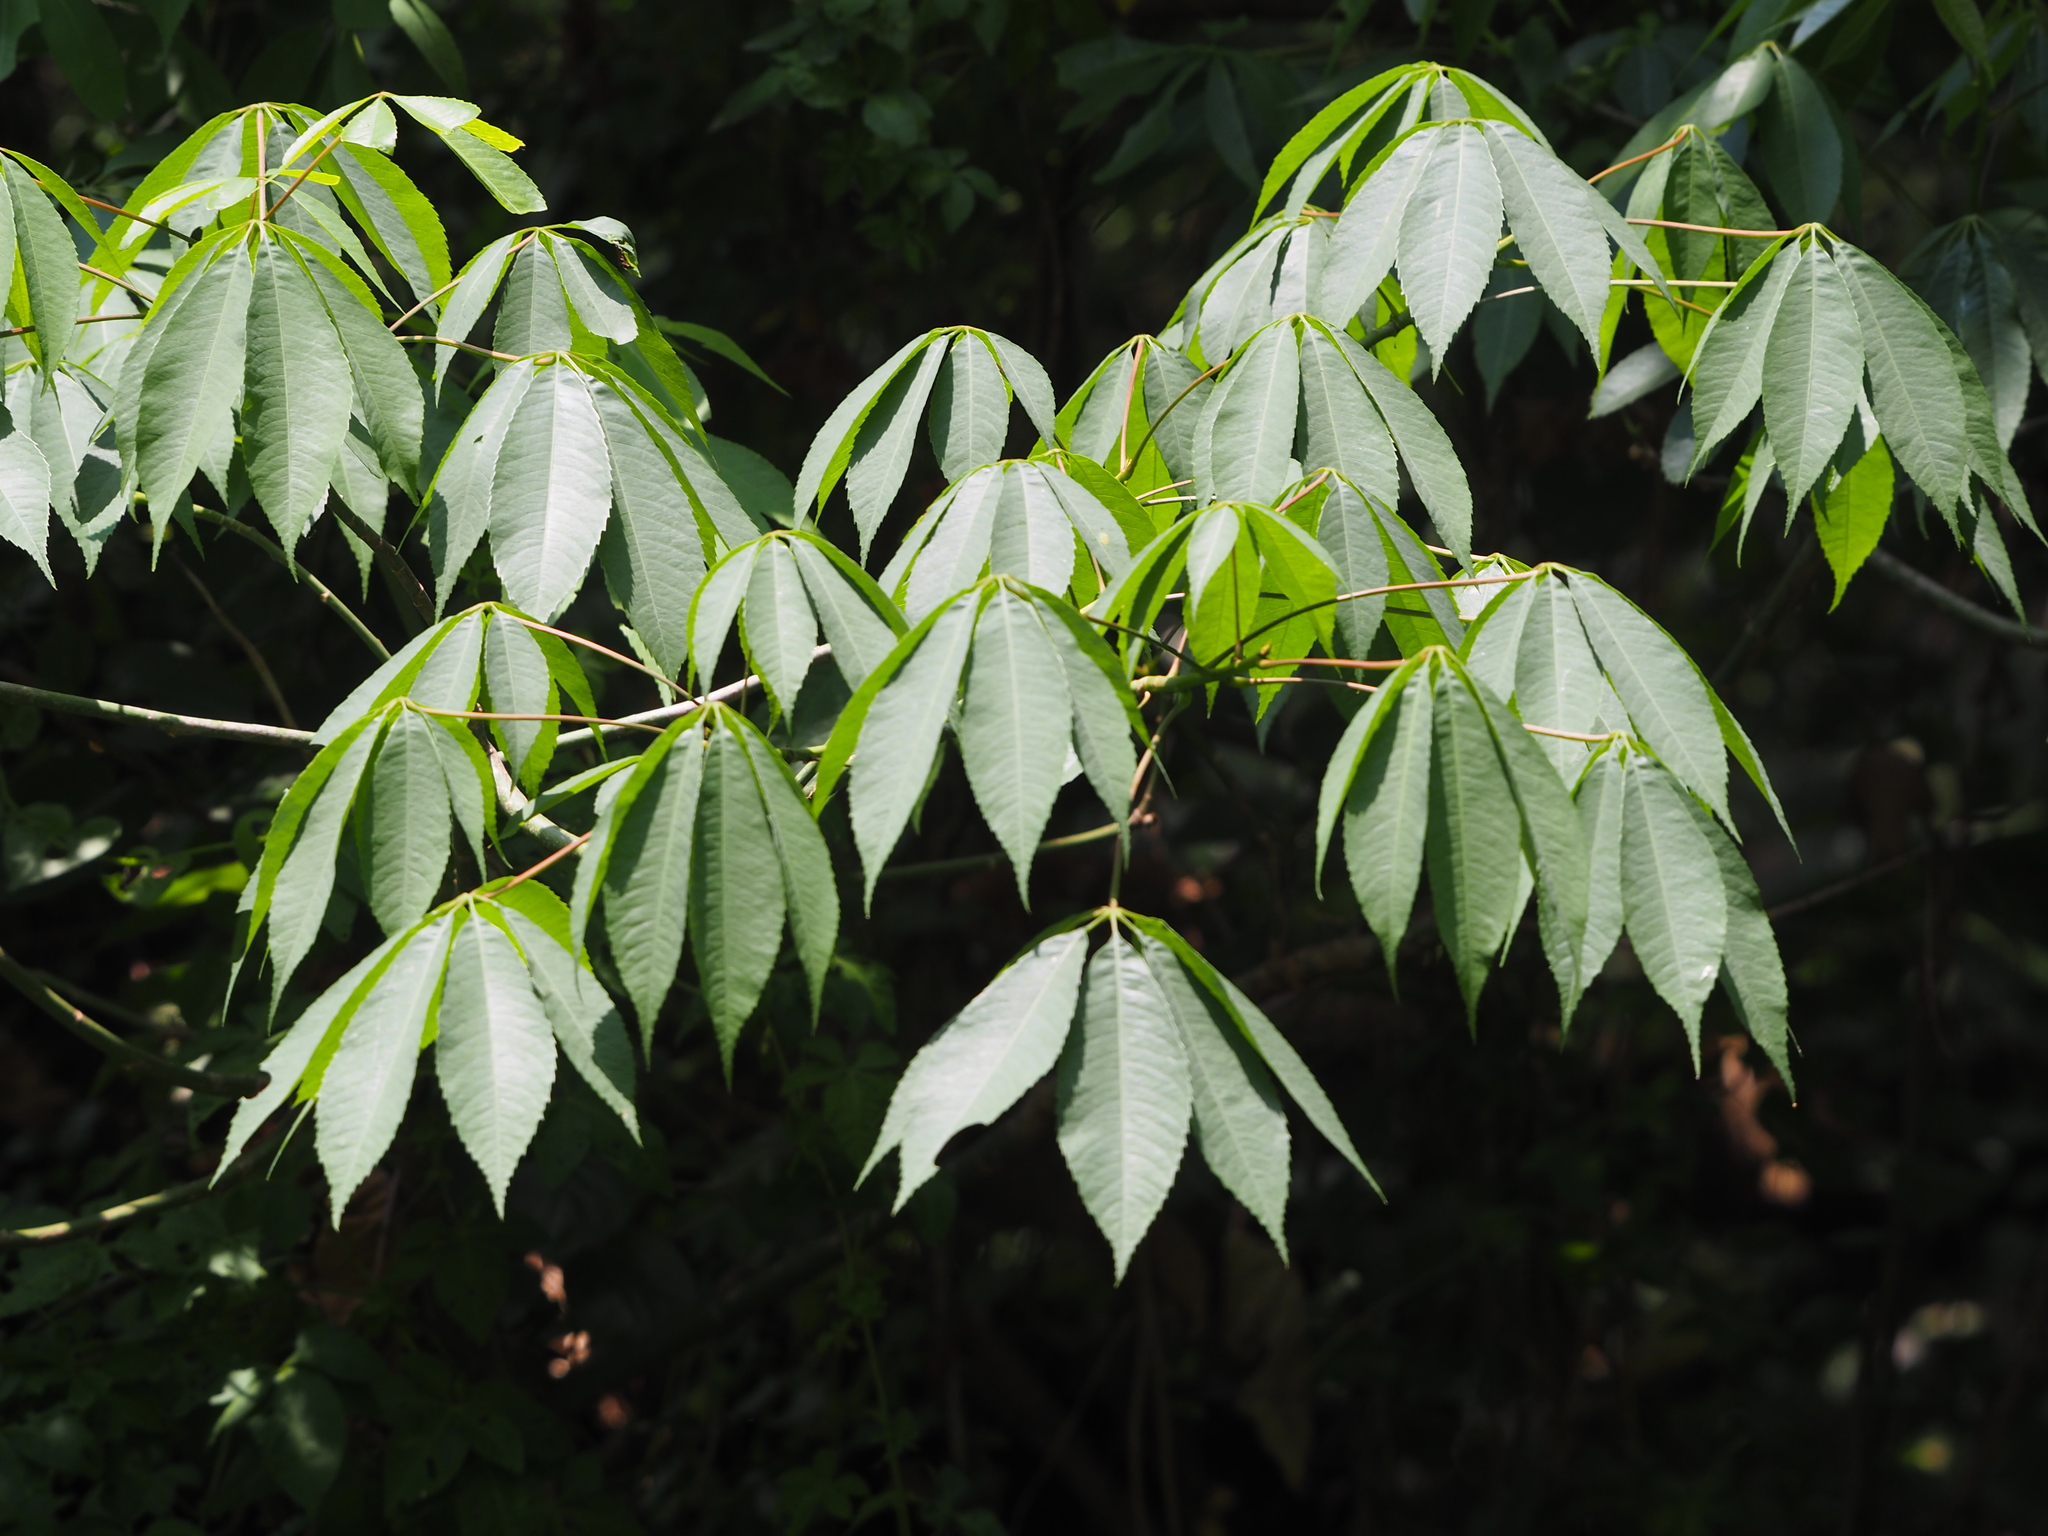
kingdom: Plantae
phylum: Tracheophyta
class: Magnoliopsida
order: Malpighiales
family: Euphorbiaceae
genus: Manihot
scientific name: Manihot esculenta
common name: Cassava
